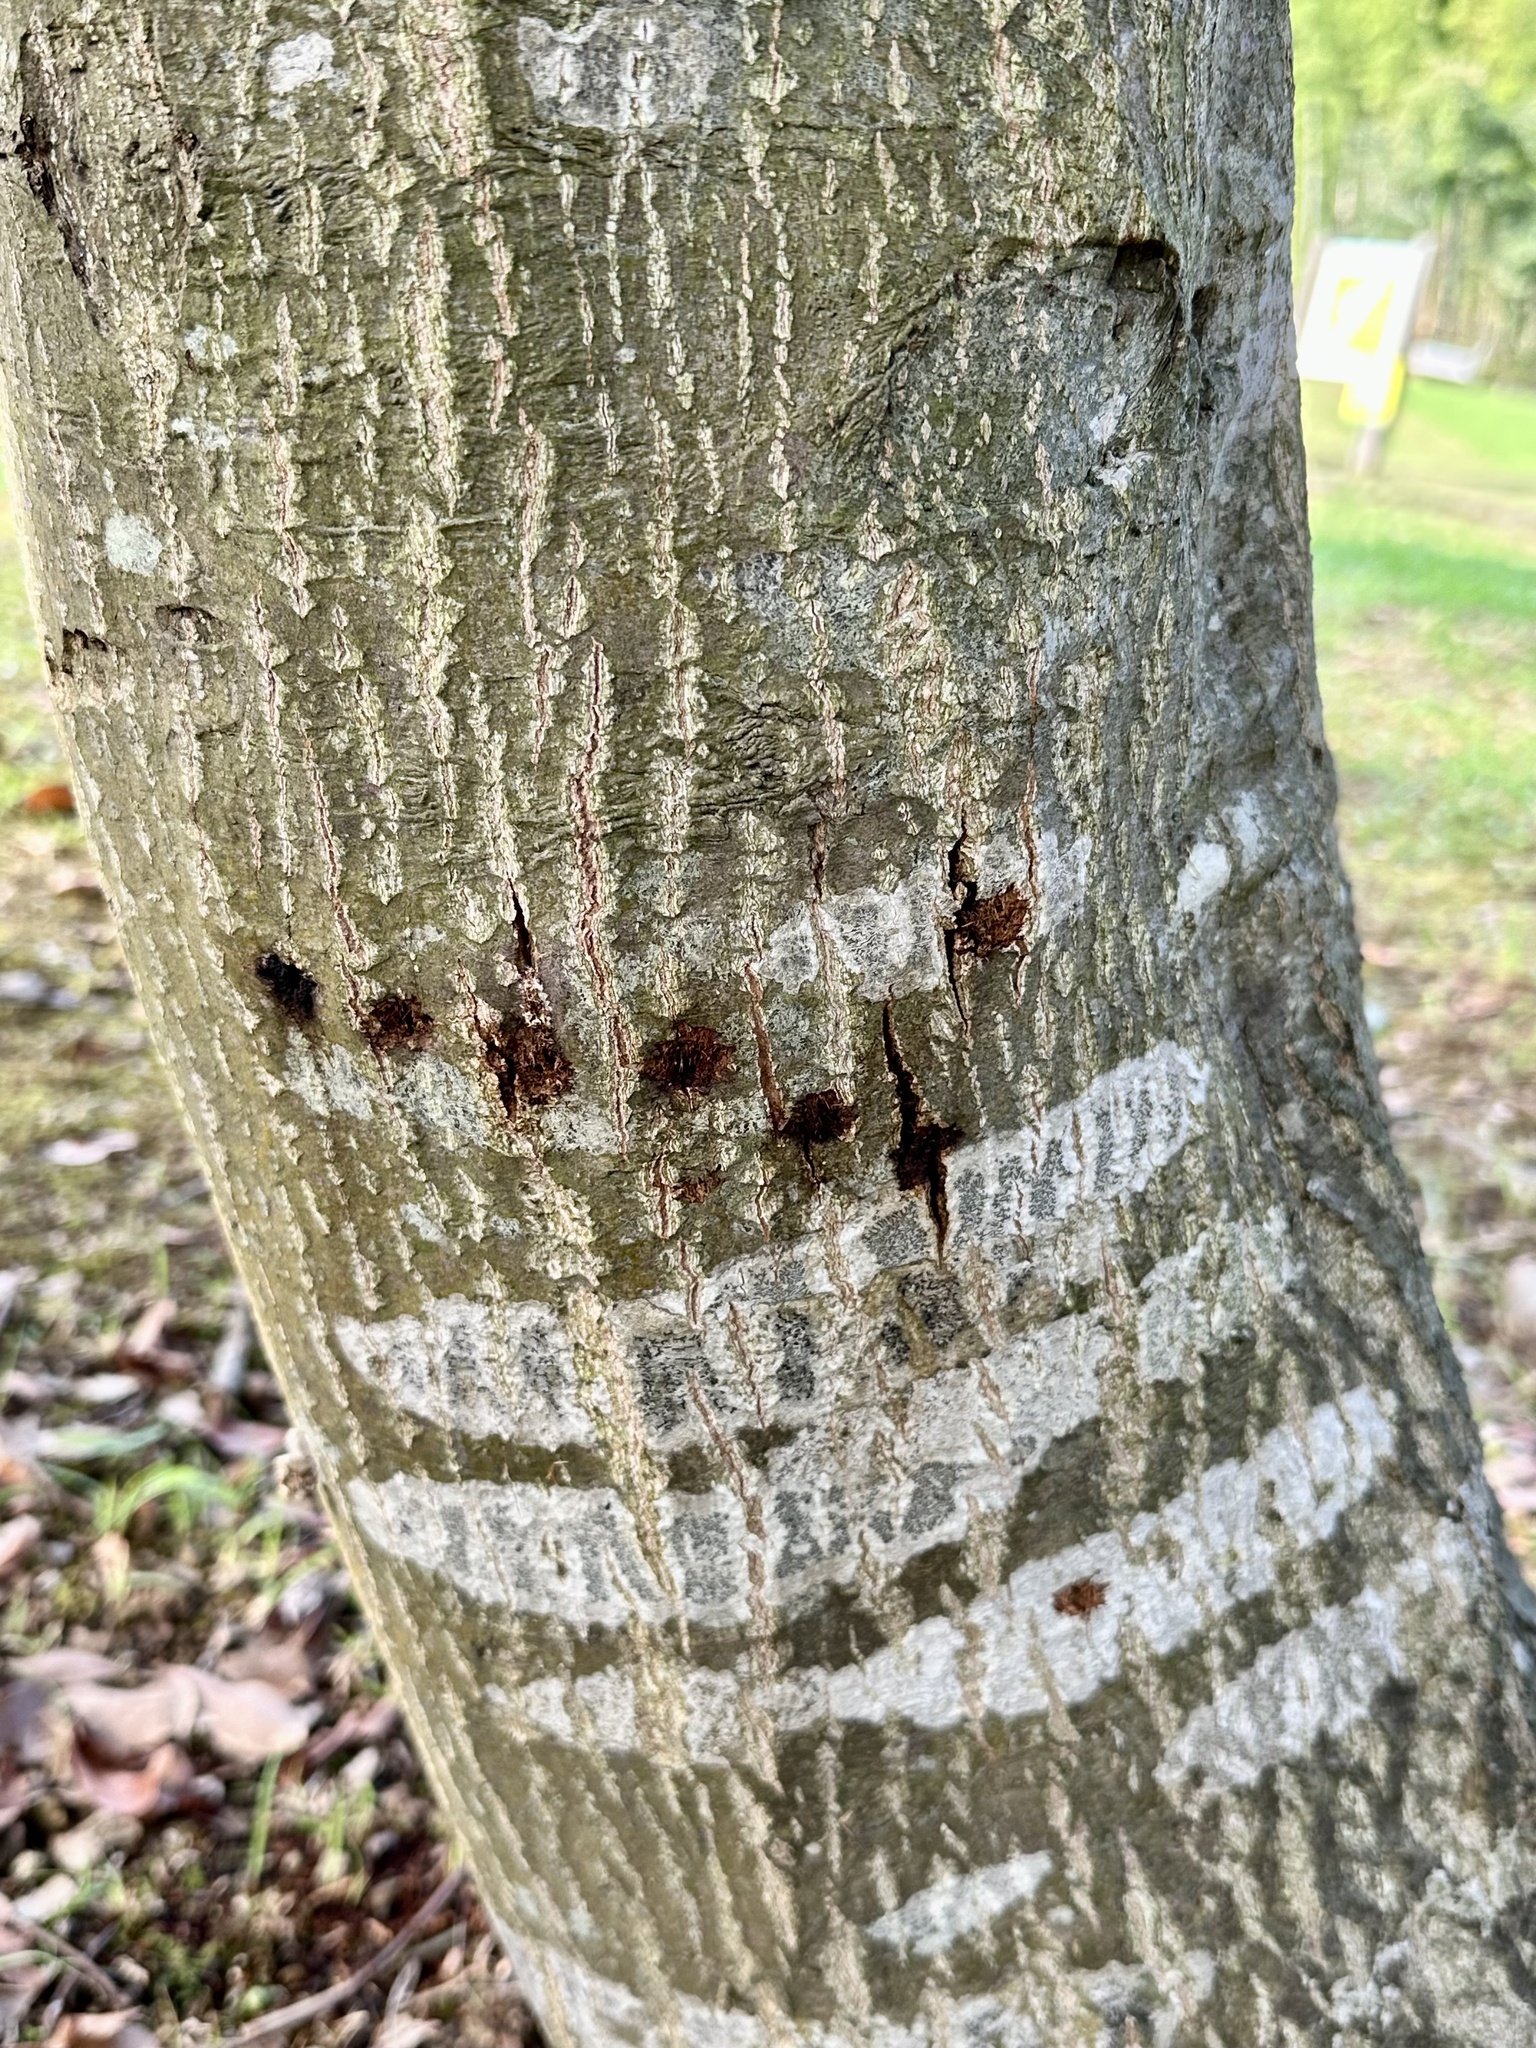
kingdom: Animalia
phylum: Arthropoda
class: Insecta
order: Coleoptera
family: Cerambycidae
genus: Batocera
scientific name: Batocera lineolata
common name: Whitestriped long-horned beetle
